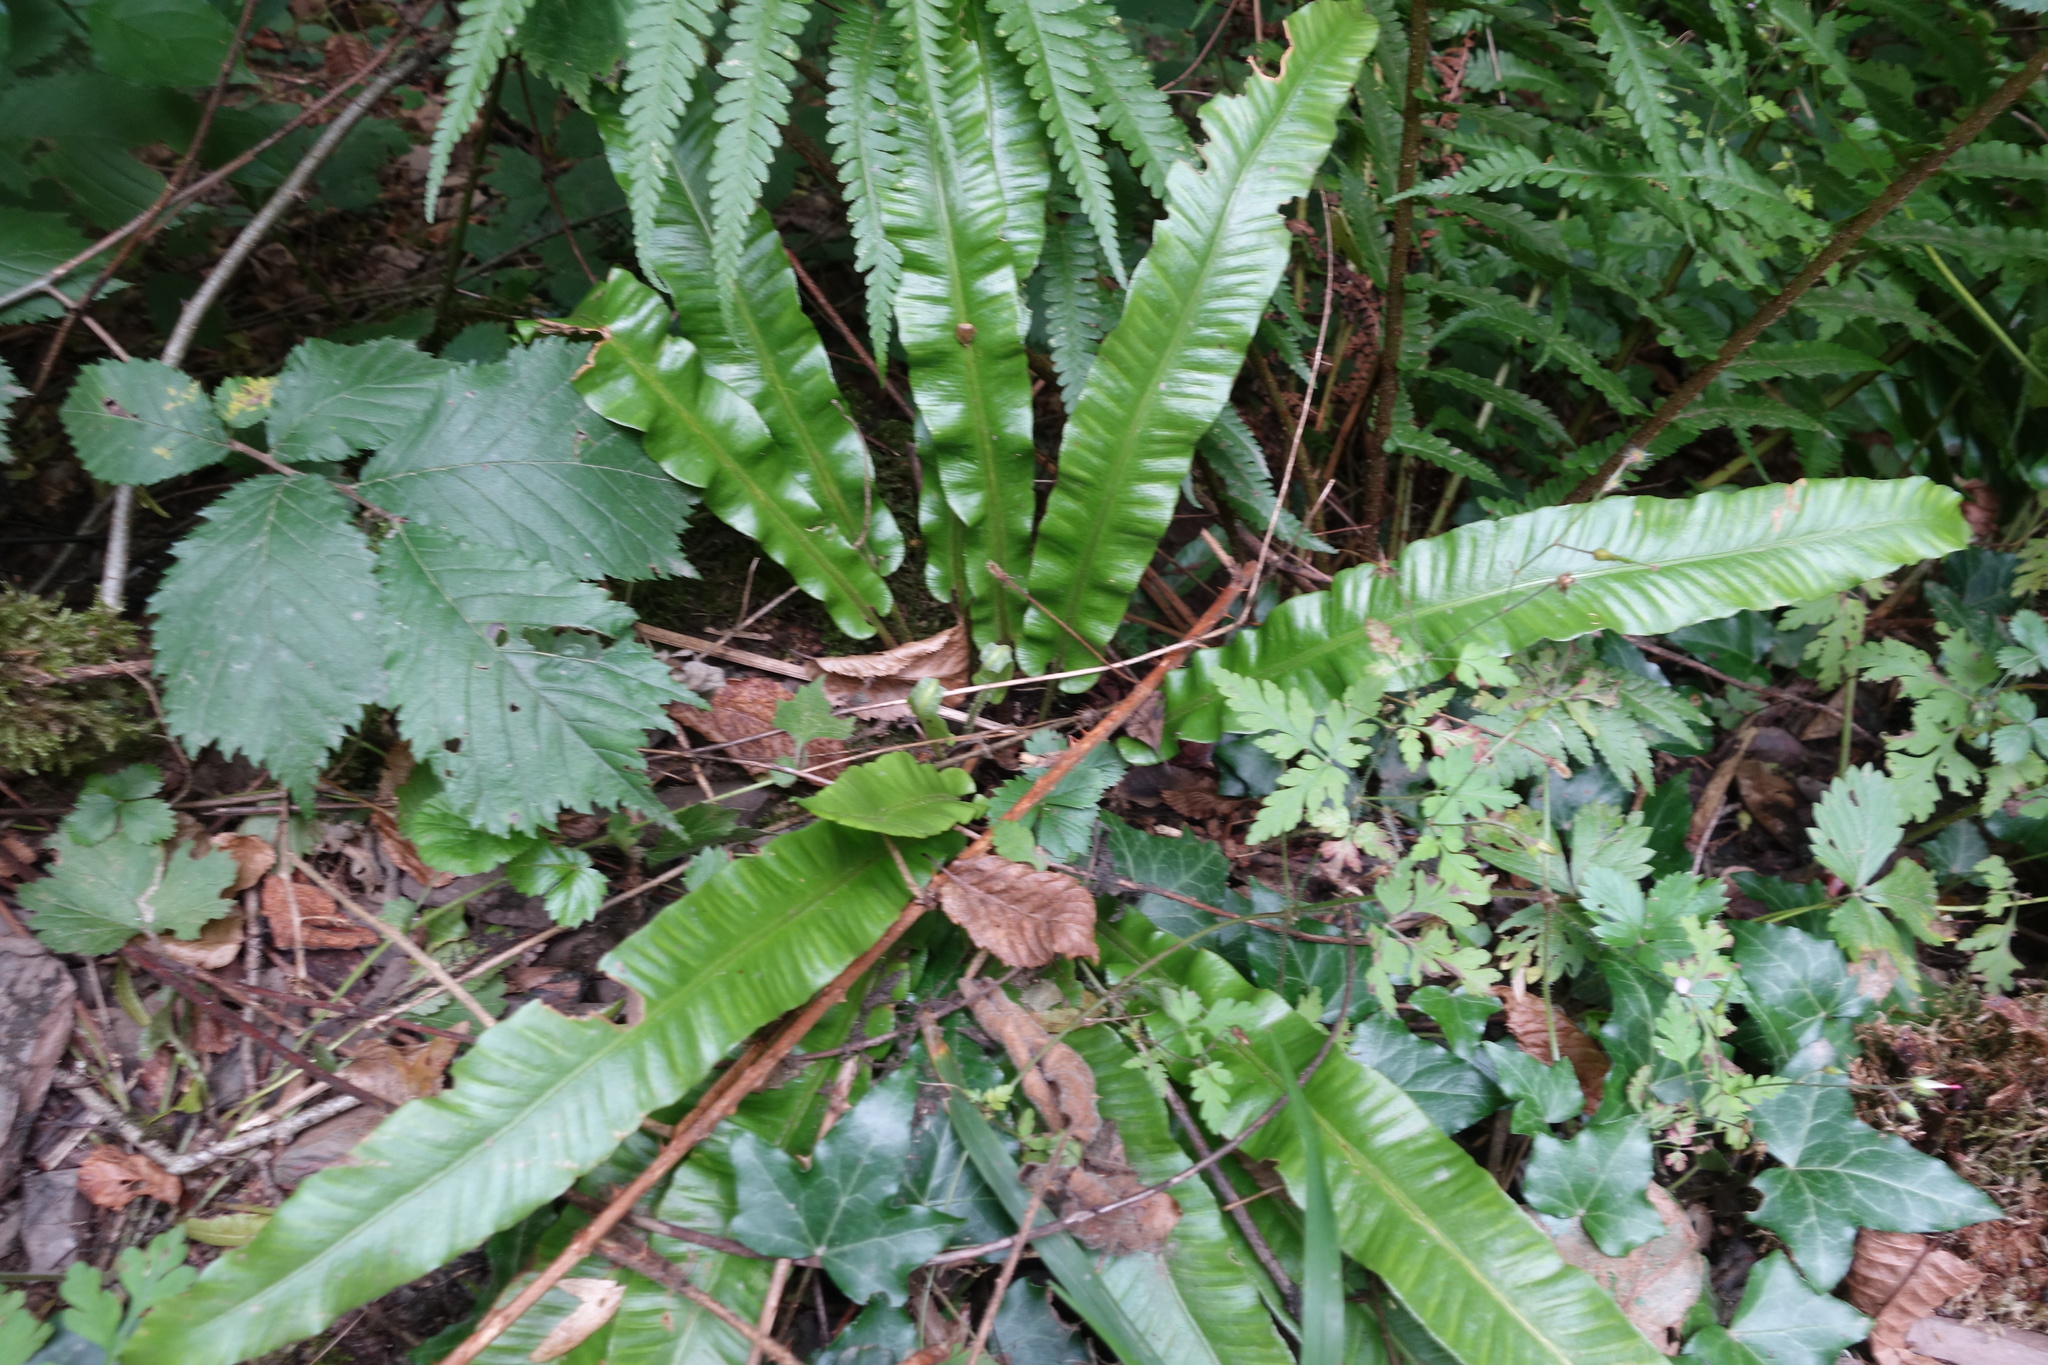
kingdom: Plantae
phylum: Tracheophyta
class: Polypodiopsida
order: Polypodiales
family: Aspleniaceae
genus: Asplenium
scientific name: Asplenium scolopendrium
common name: Hart's-tongue fern
